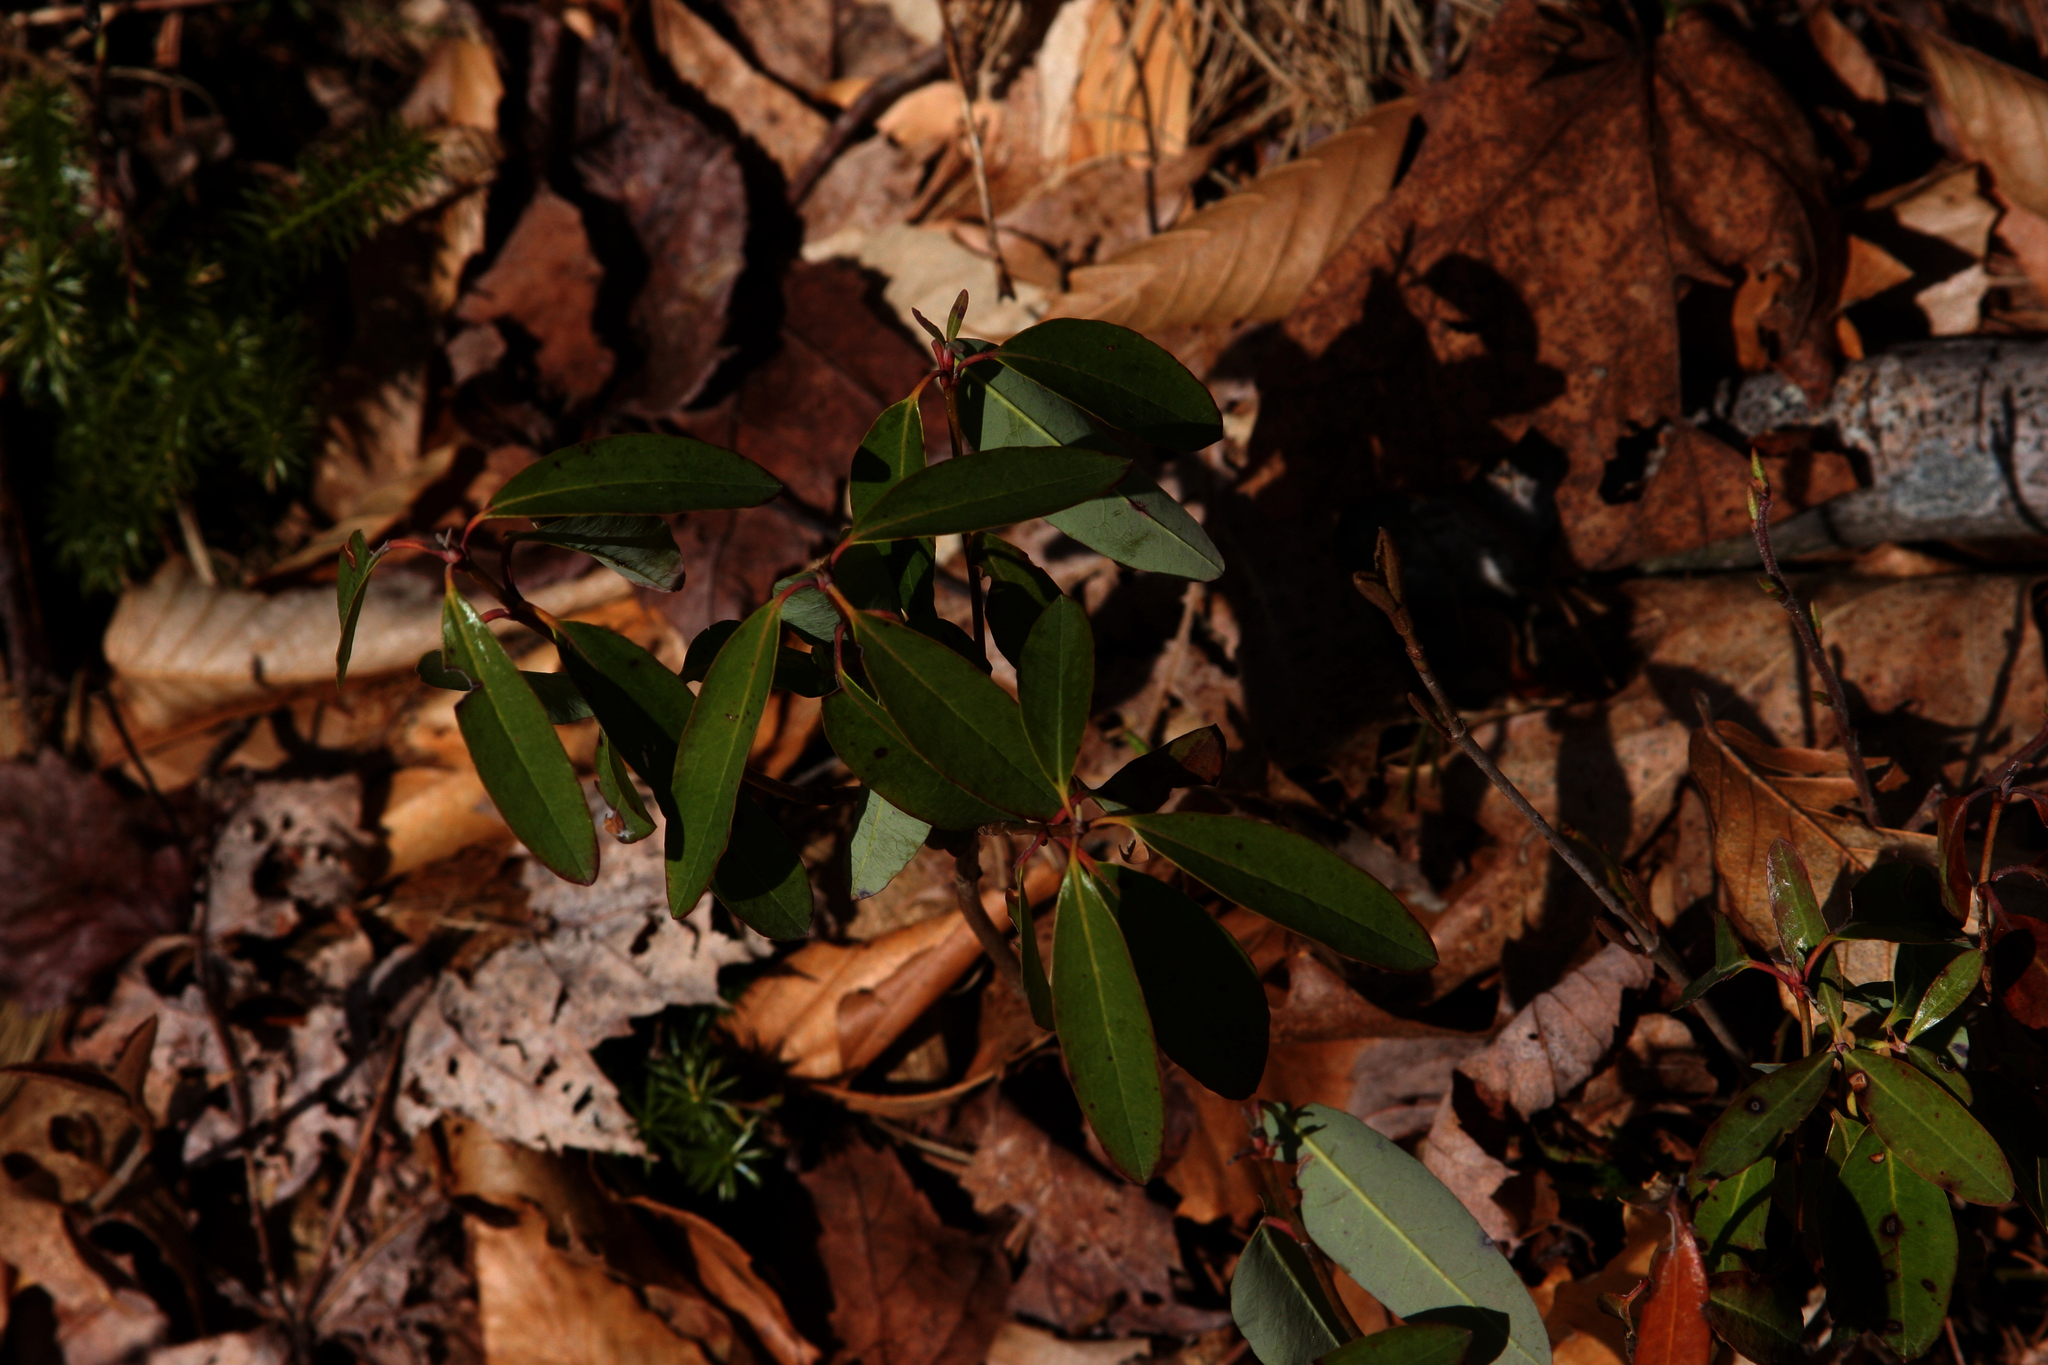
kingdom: Plantae
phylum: Tracheophyta
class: Magnoliopsida
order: Ericales
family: Ericaceae
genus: Kalmia
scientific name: Kalmia angustifolia
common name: Sheep-laurel
